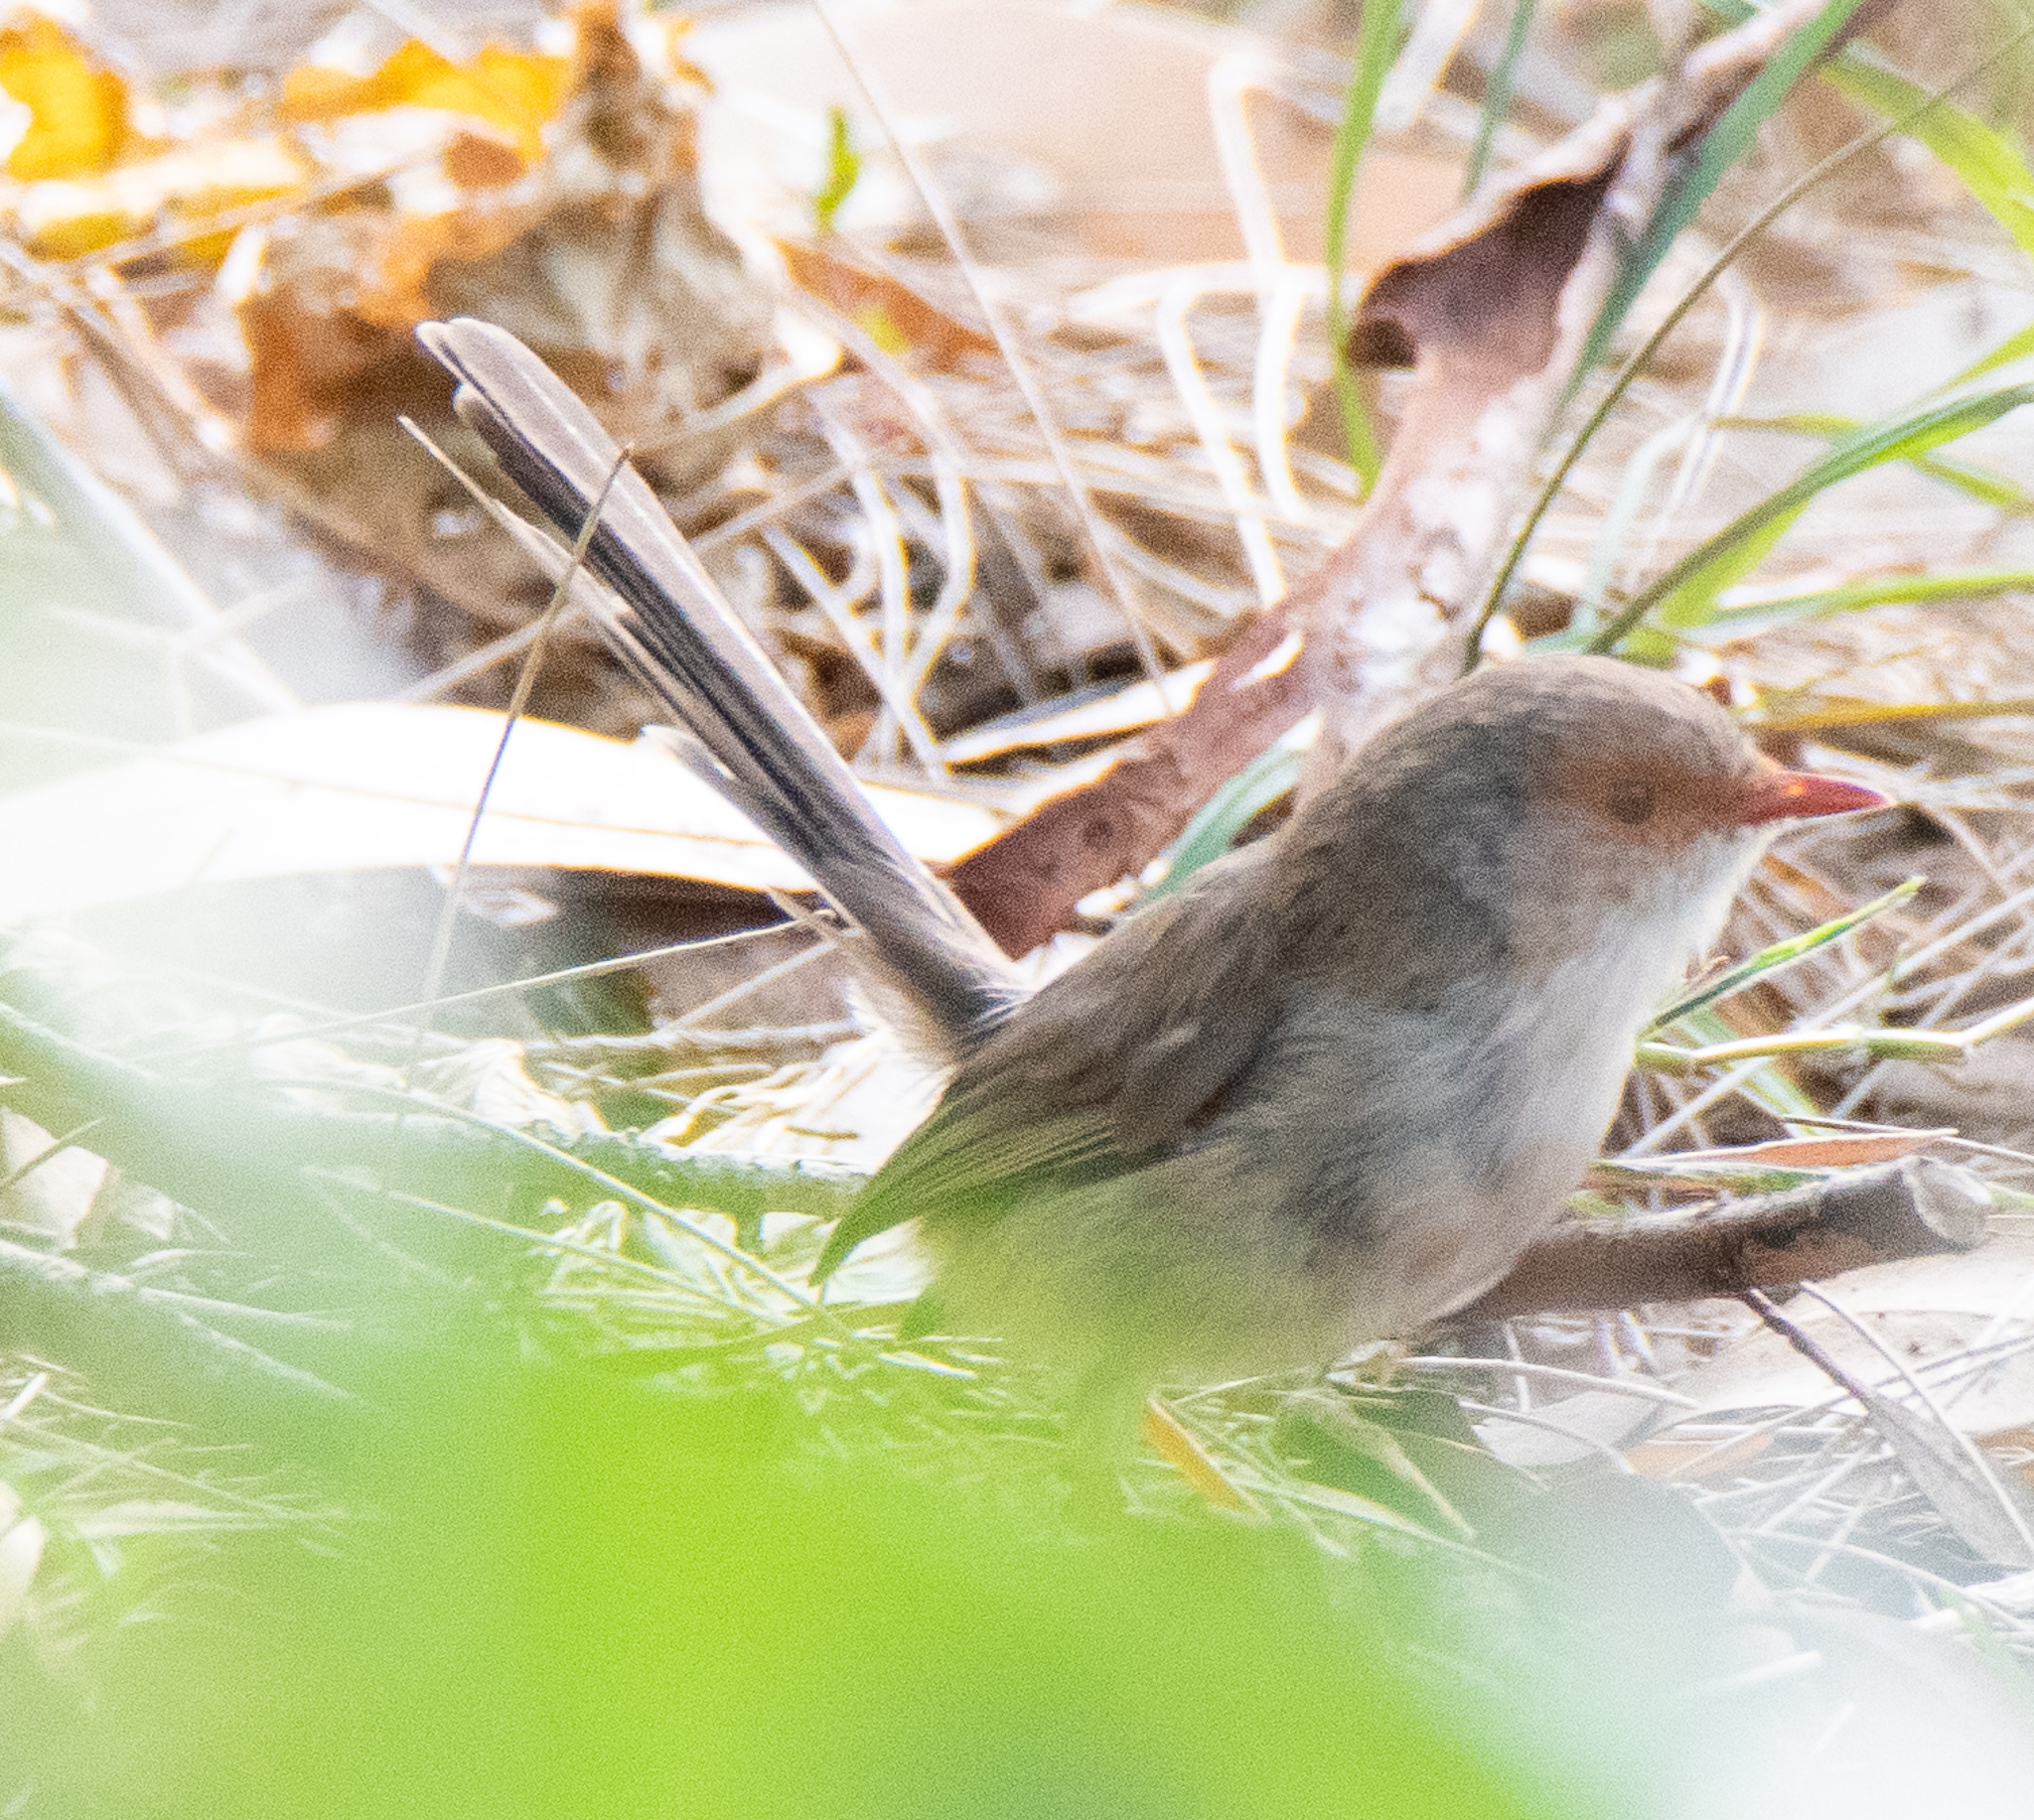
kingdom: Animalia
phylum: Chordata
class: Aves
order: Passeriformes
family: Maluridae
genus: Malurus
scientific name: Malurus cyaneus
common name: Superb fairywren
